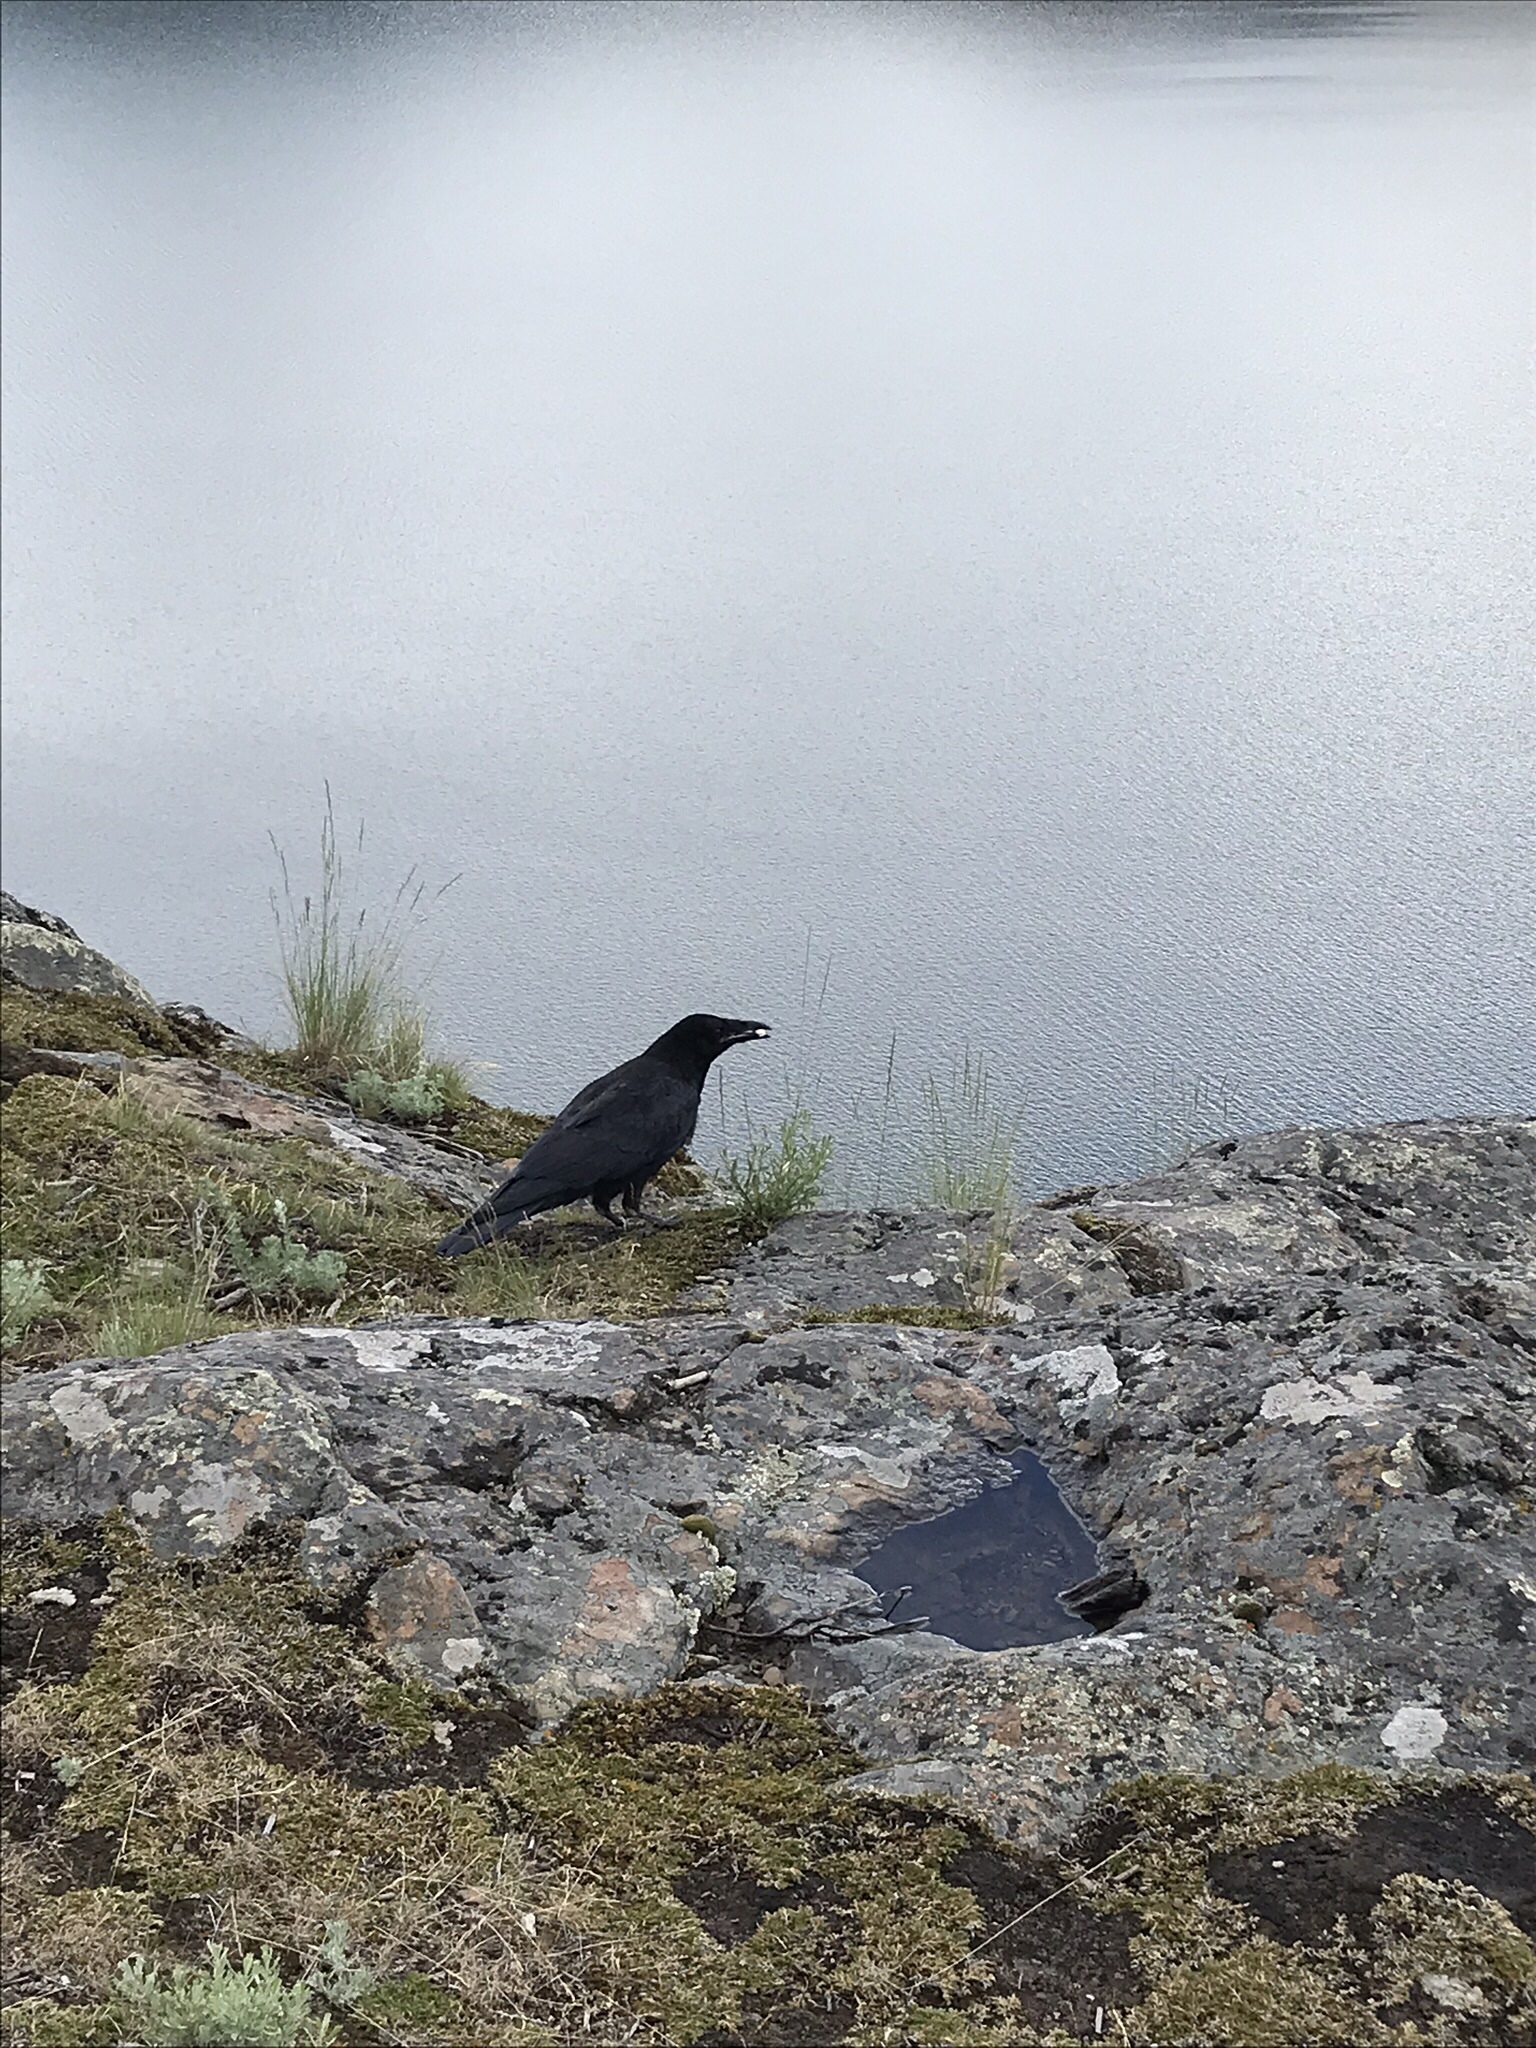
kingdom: Animalia
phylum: Chordata
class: Aves
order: Passeriformes
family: Corvidae
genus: Corvus
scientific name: Corvus corax
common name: Common raven
